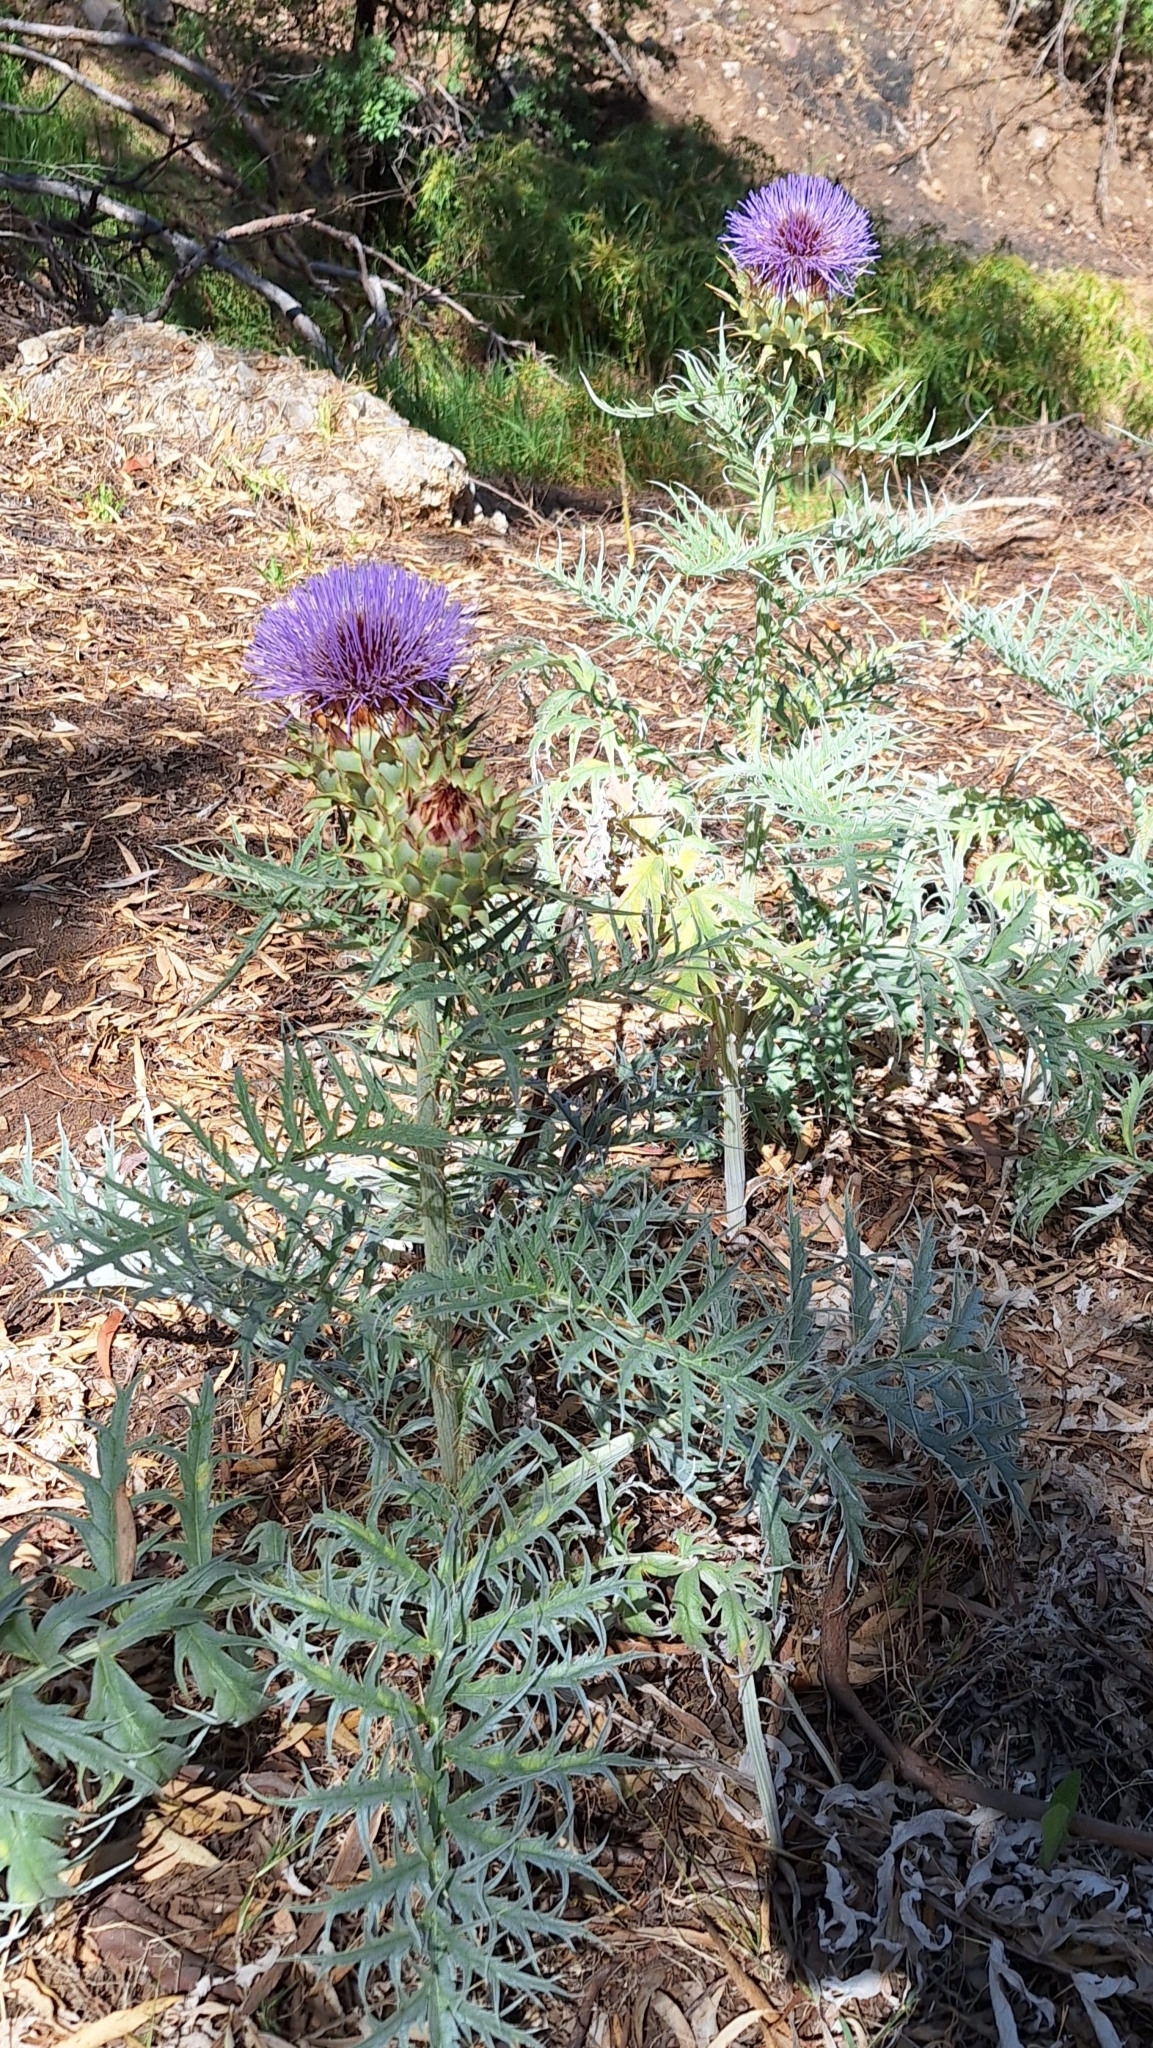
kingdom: Plantae
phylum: Tracheophyta
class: Magnoliopsida
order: Asterales
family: Asteraceae
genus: Cynara
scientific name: Cynara cardunculus
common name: Globe artichoke
